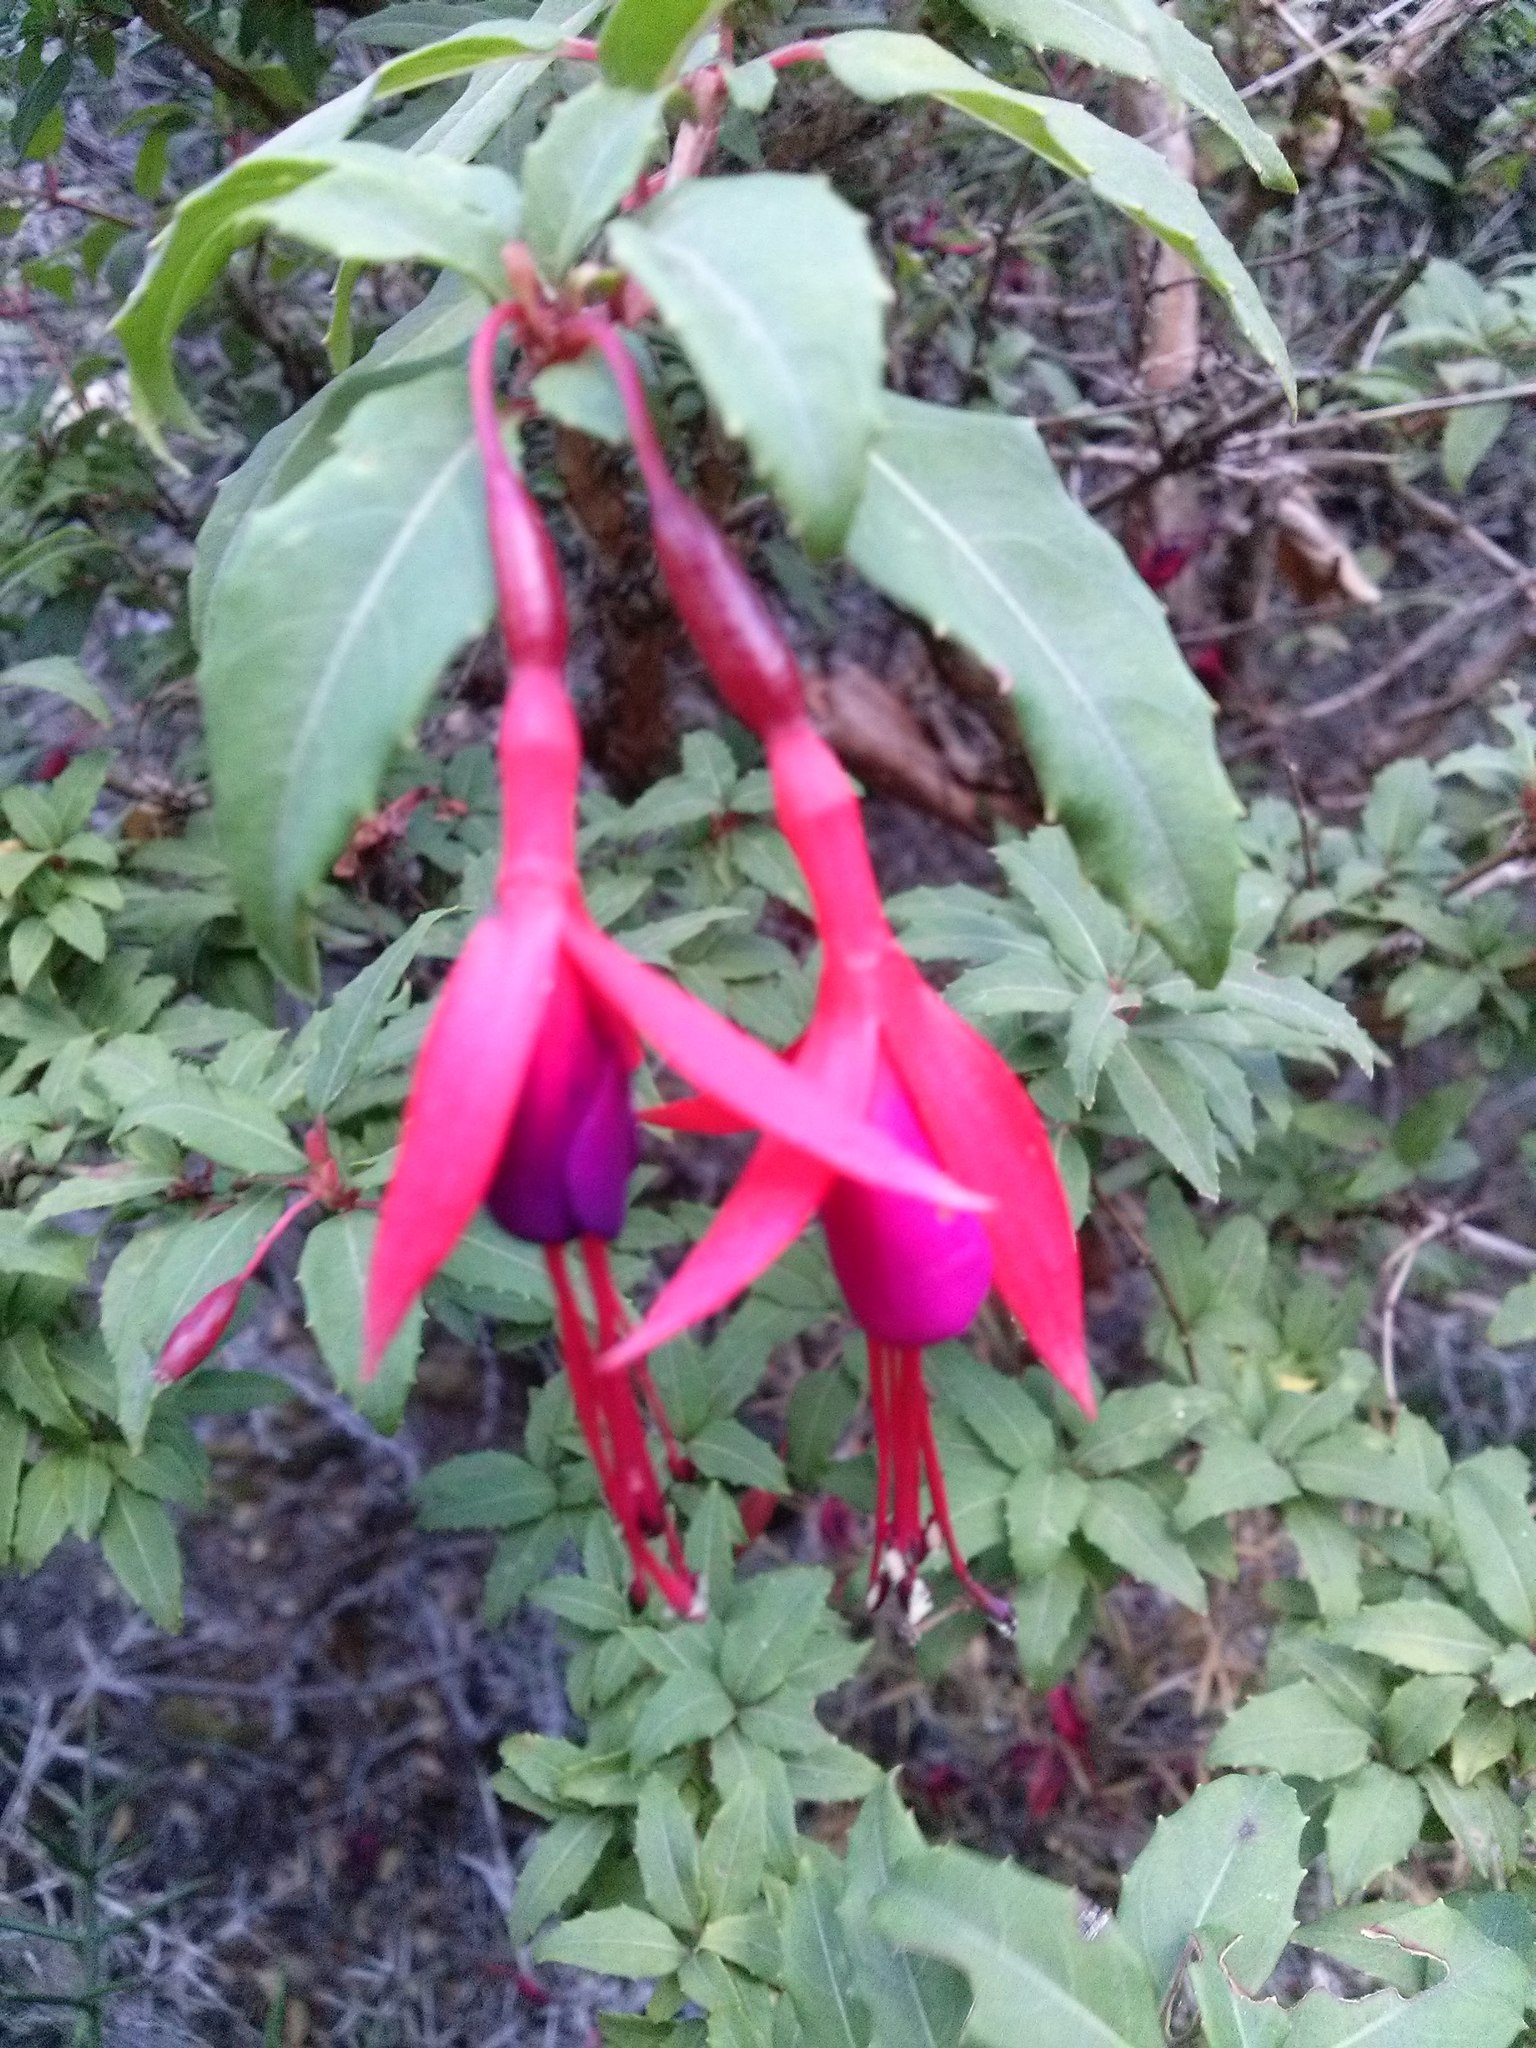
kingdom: Plantae
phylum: Tracheophyta
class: Magnoliopsida
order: Myrtales
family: Onagraceae
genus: Fuchsia
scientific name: Fuchsia magellanica
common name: Hardy fuchsia
